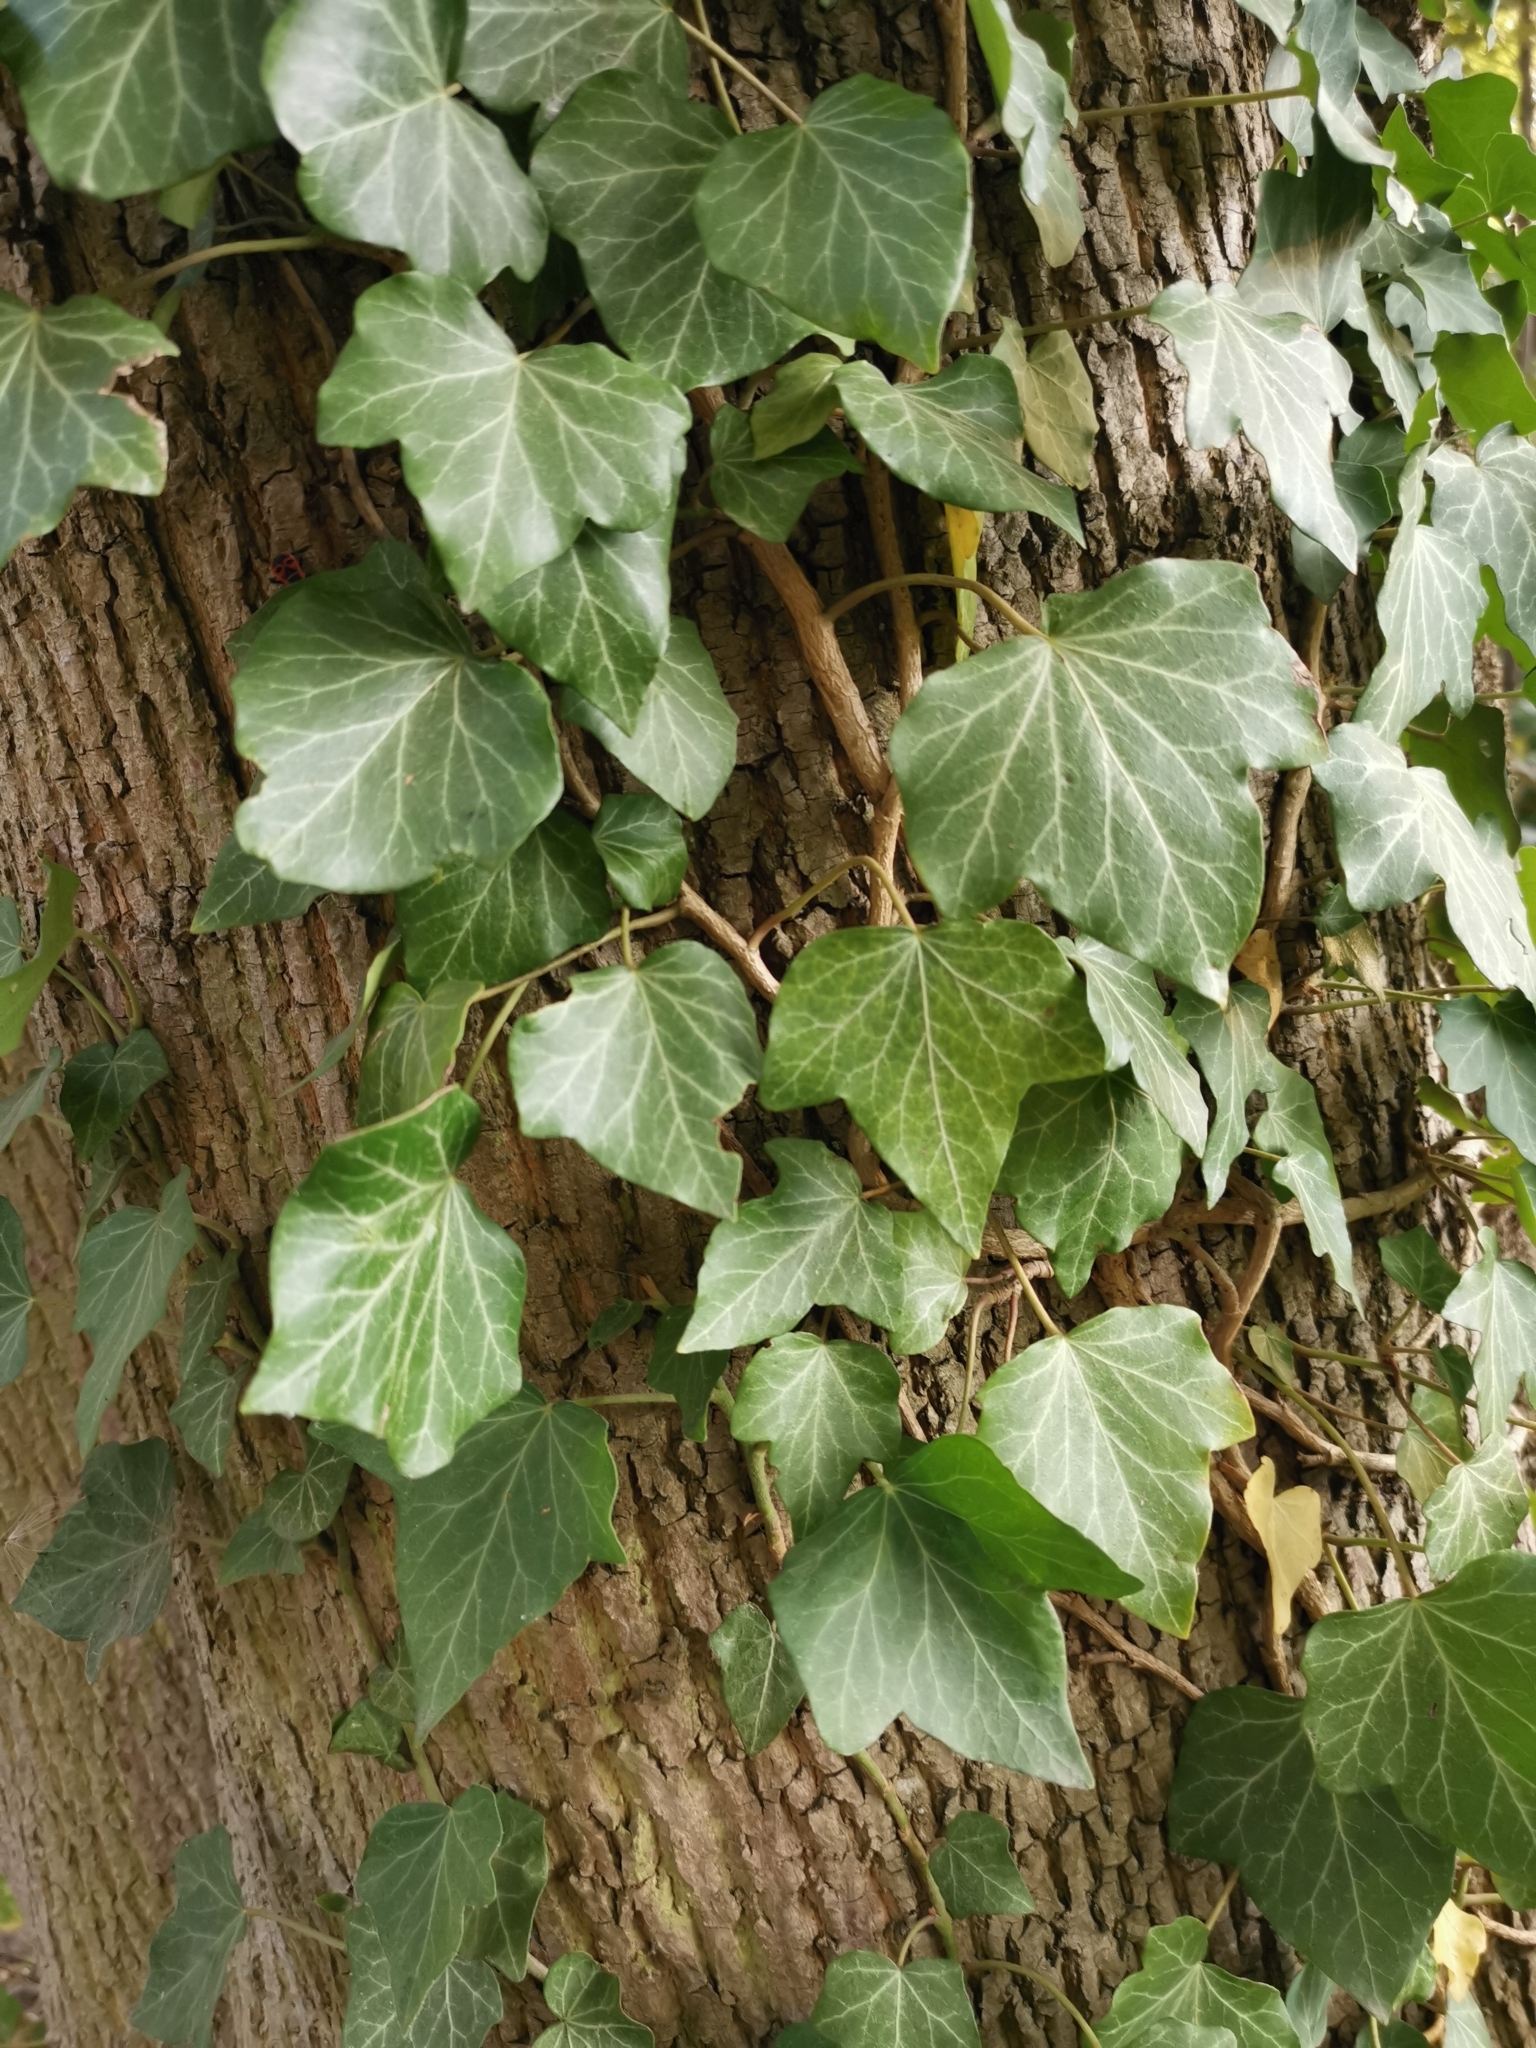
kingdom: Plantae
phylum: Tracheophyta
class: Magnoliopsida
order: Apiales
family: Araliaceae
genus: Hedera
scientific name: Hedera helix
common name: Ivy
